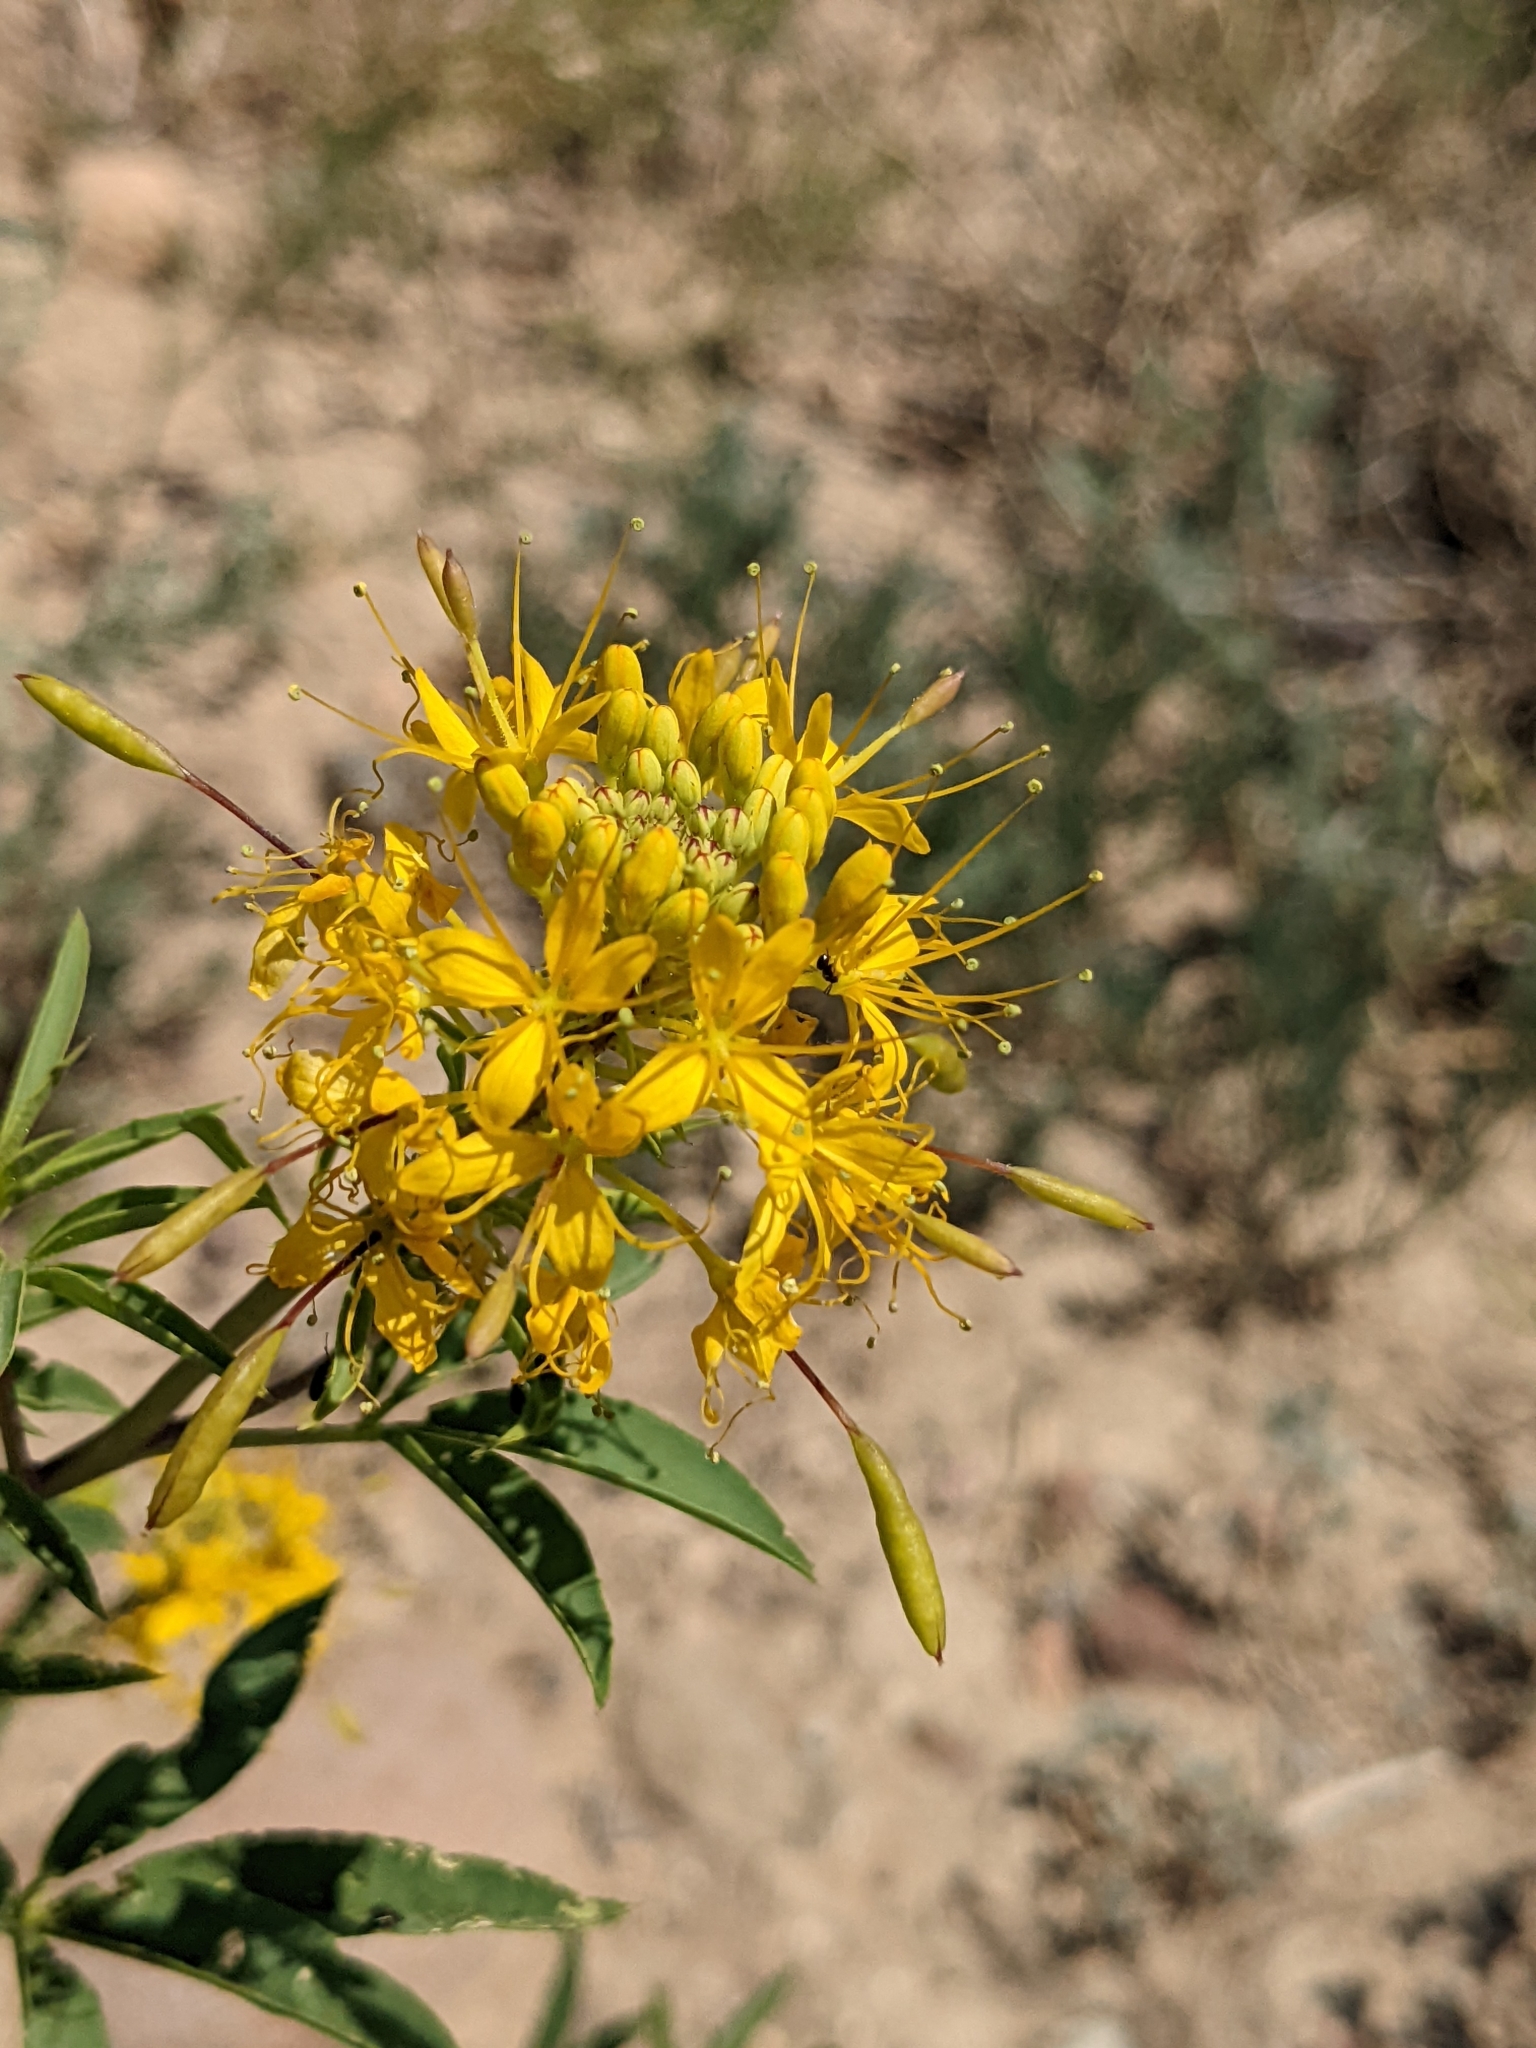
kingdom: Plantae
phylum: Tracheophyta
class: Magnoliopsida
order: Brassicales
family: Cleomaceae
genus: Cleomella
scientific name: Cleomella lutea
